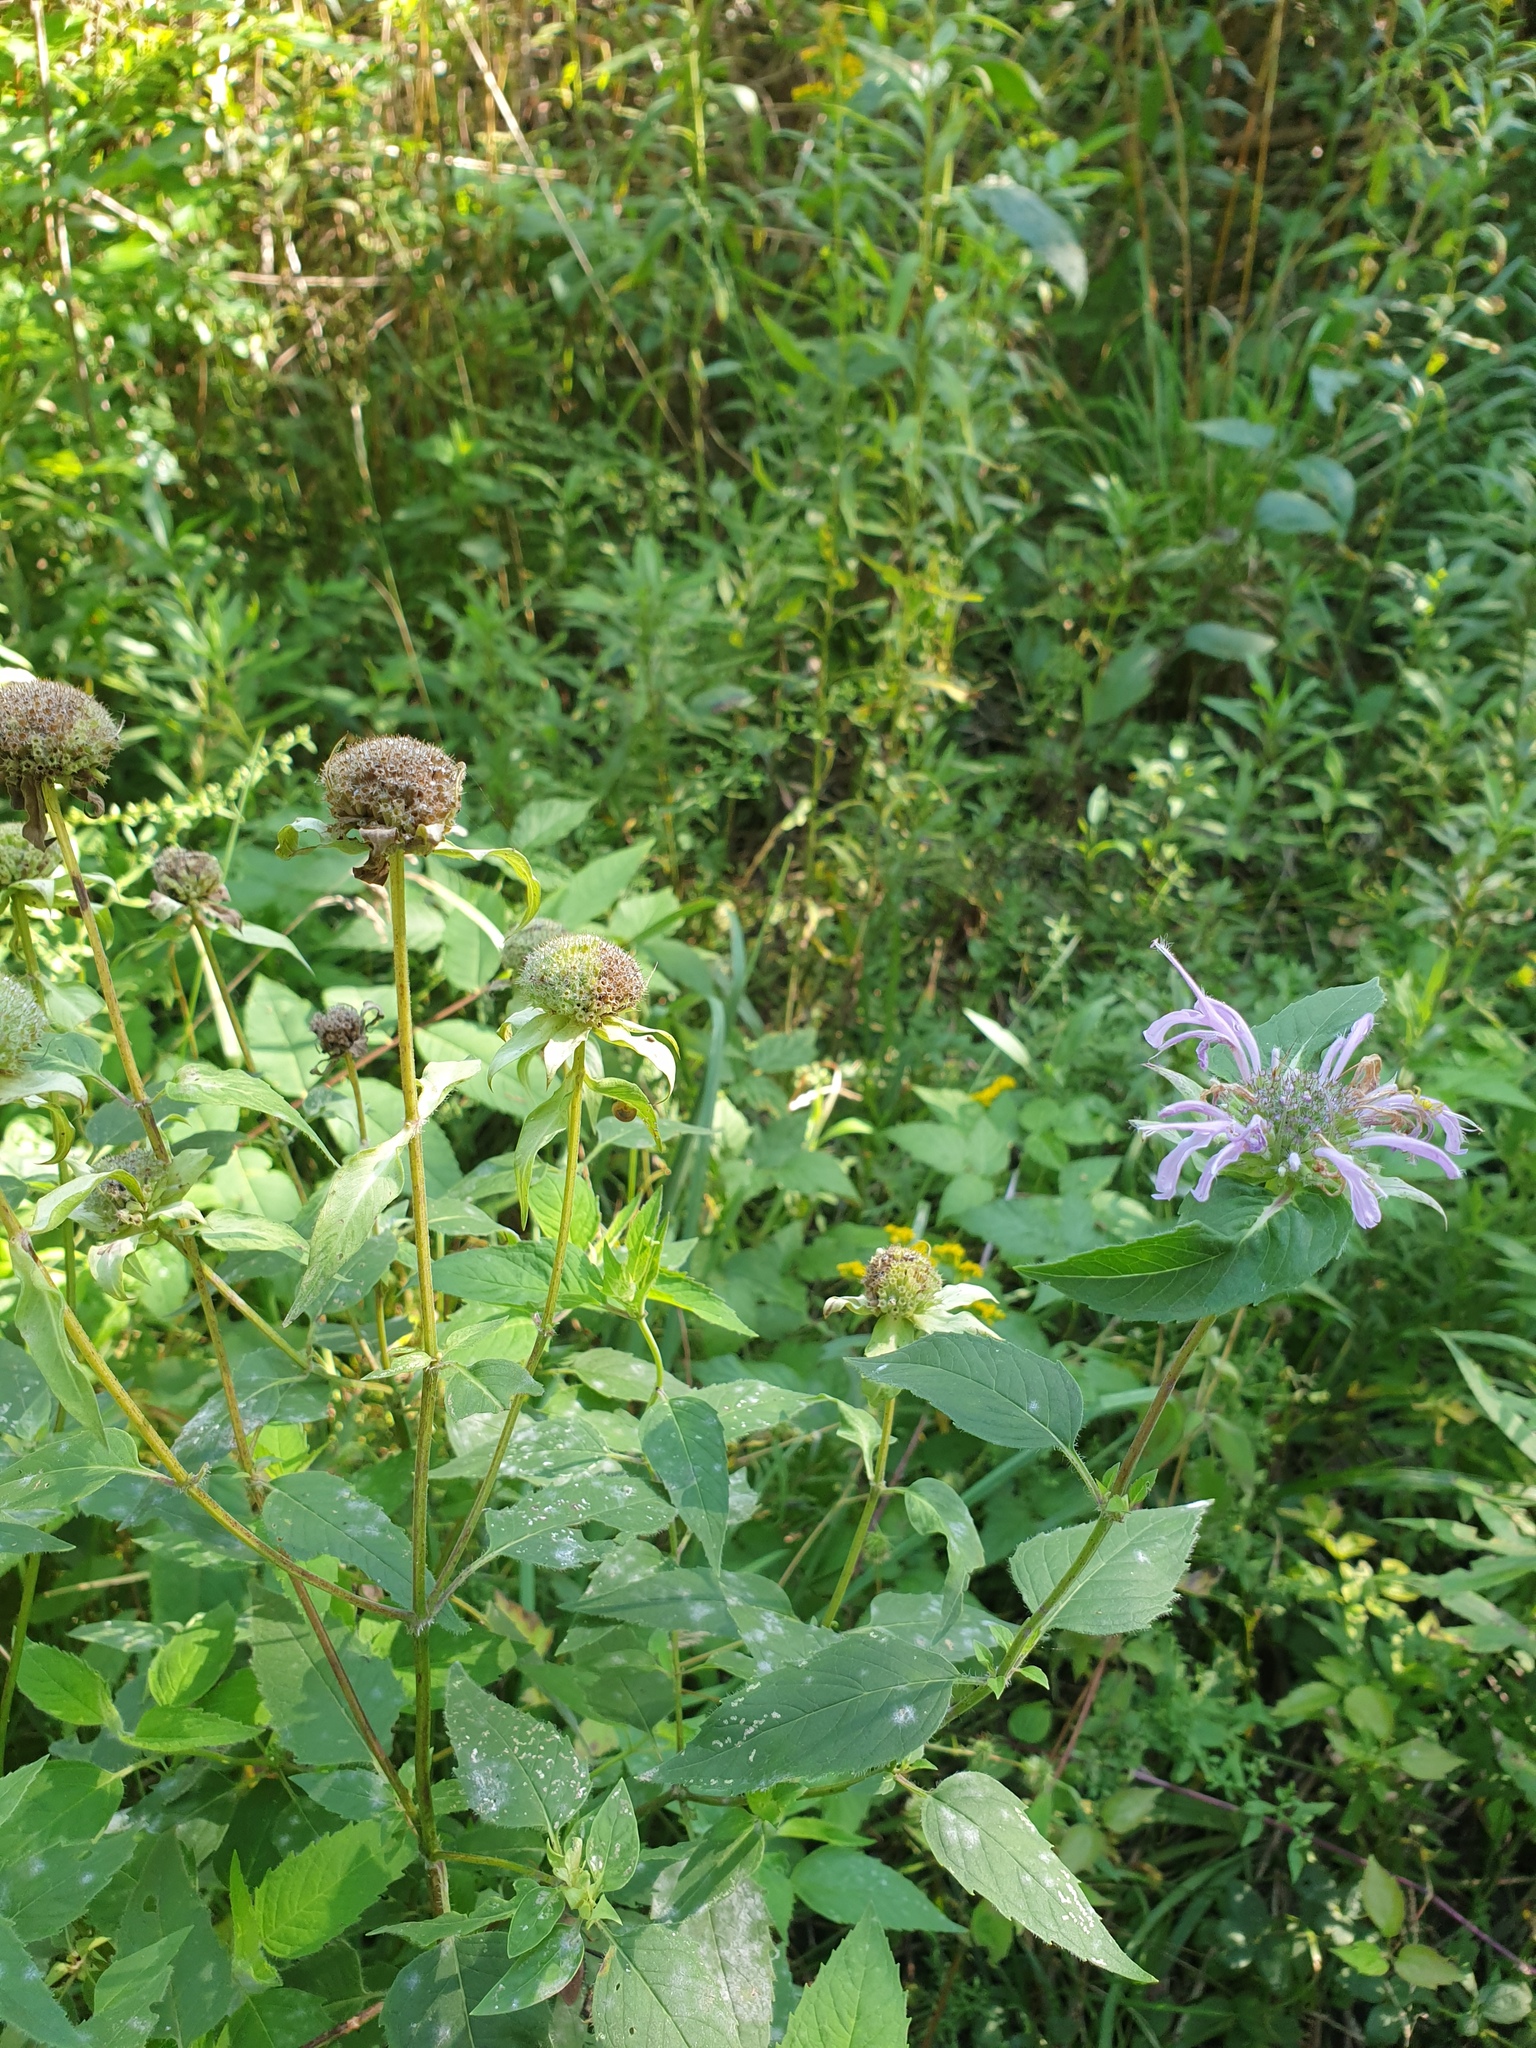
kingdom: Plantae
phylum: Tracheophyta
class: Magnoliopsida
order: Lamiales
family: Lamiaceae
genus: Monarda
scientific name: Monarda fistulosa
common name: Purple beebalm
